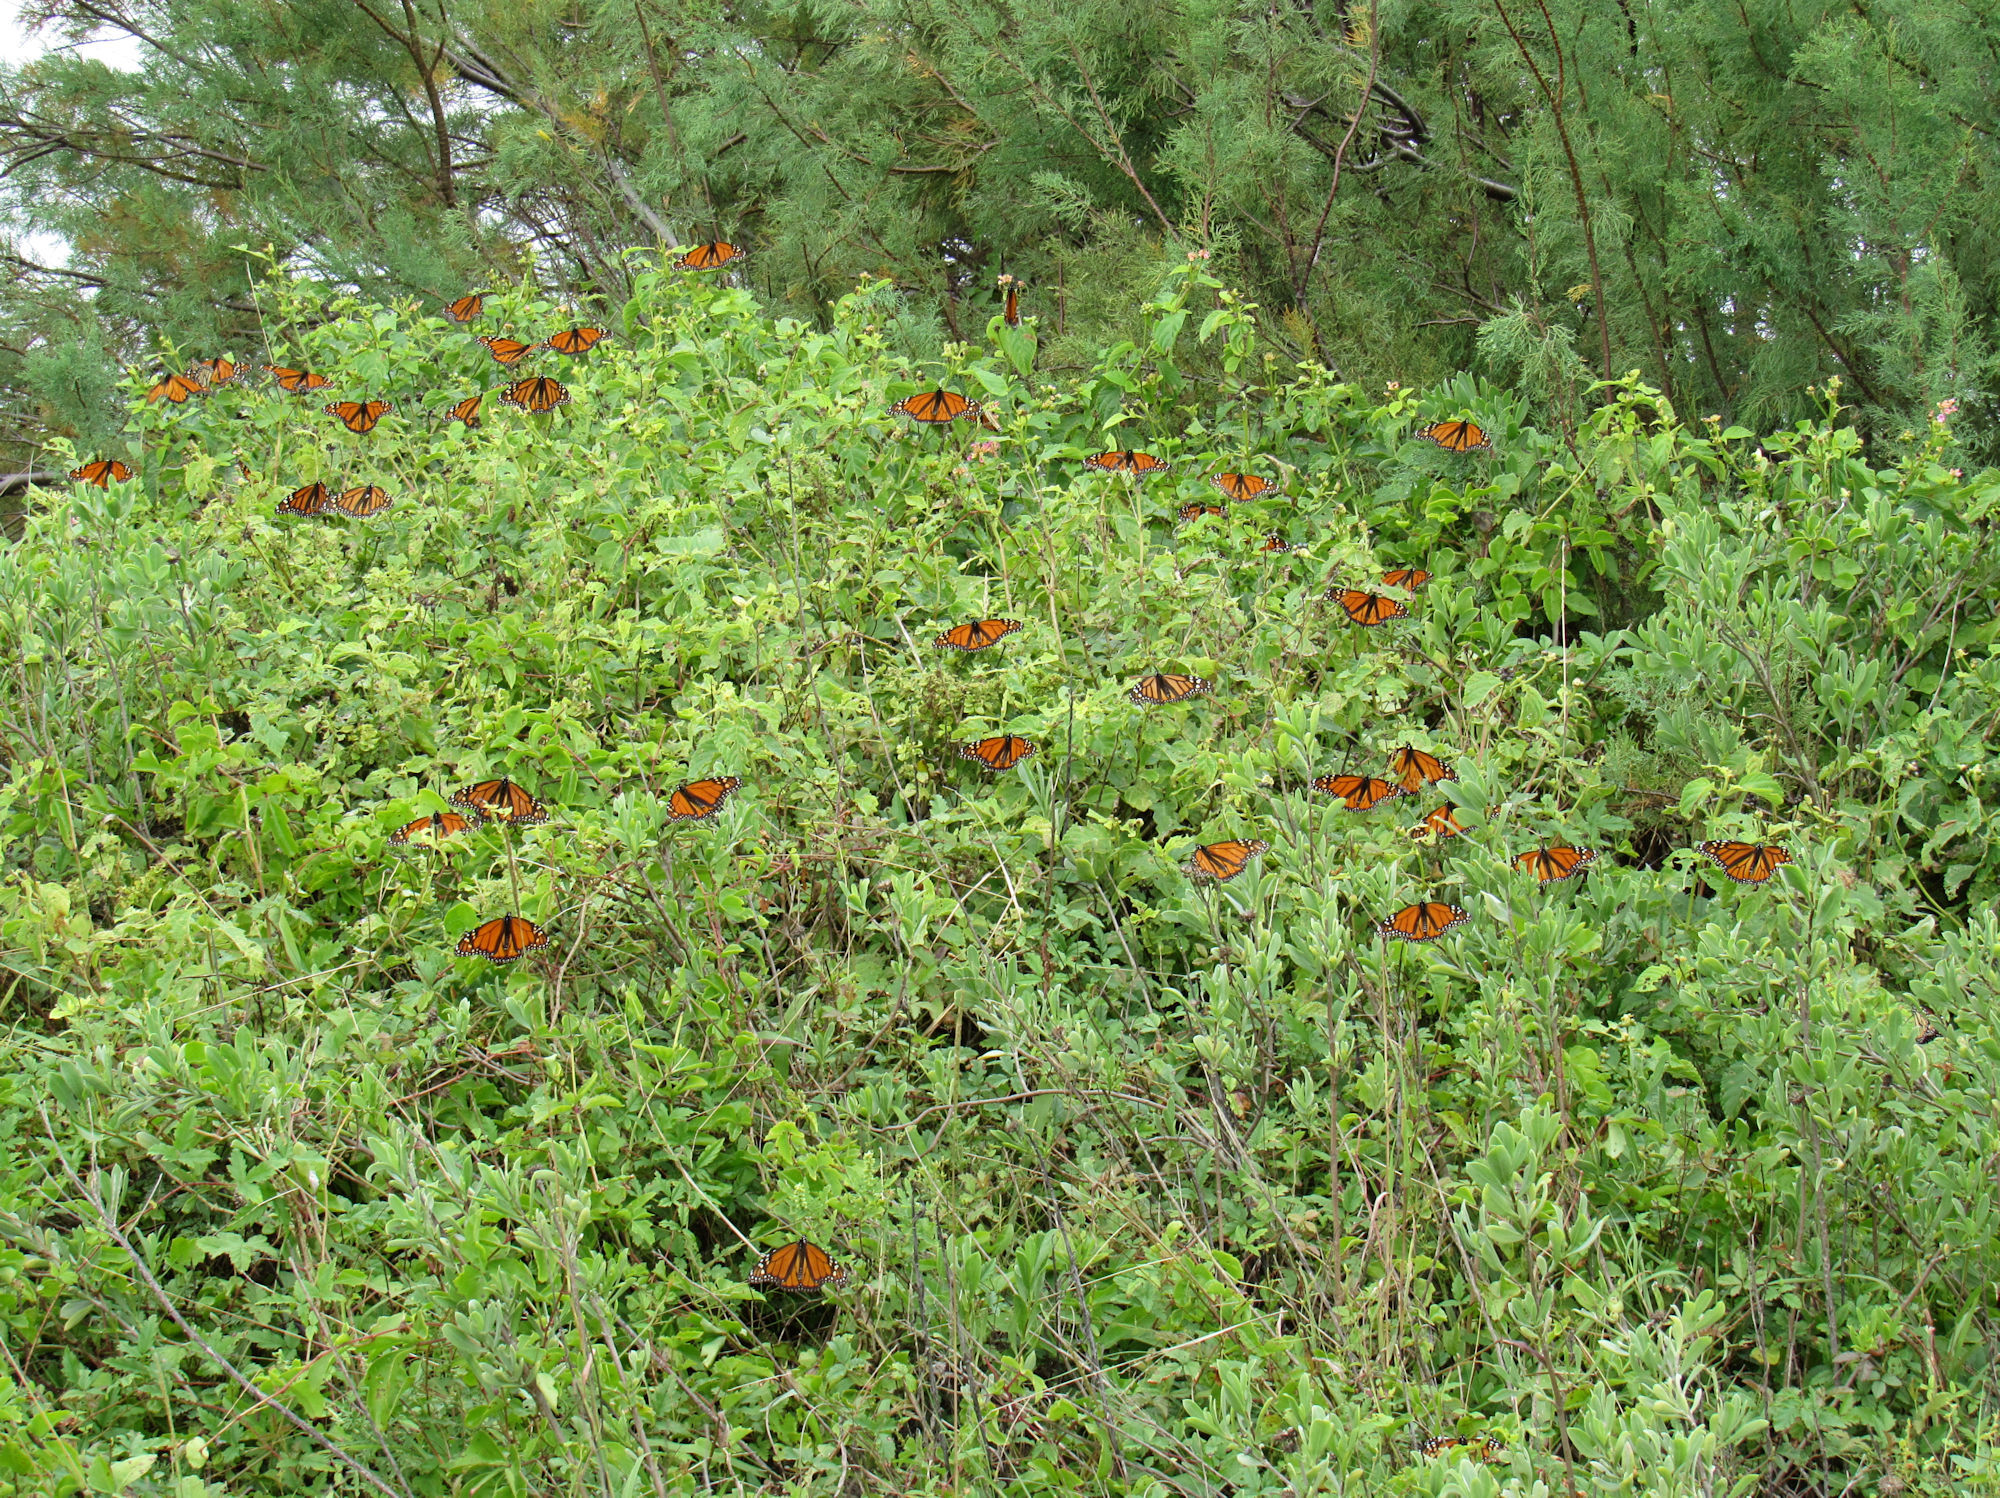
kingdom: Animalia
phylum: Arthropoda
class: Insecta
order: Lepidoptera
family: Nymphalidae
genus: Danaus
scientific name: Danaus plexippus
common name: Monarch
